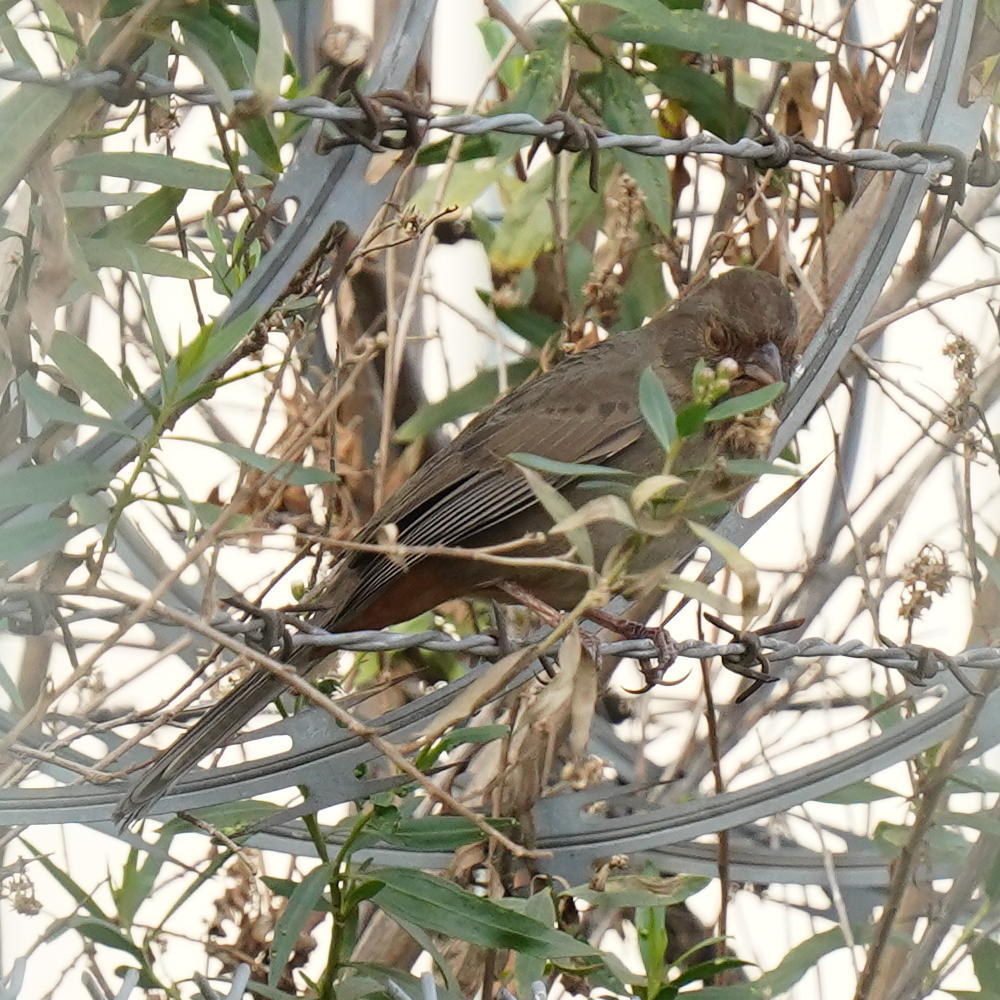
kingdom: Animalia
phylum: Chordata
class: Aves
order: Passeriformes
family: Passerellidae
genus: Melozone
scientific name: Melozone crissalis
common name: California towhee
